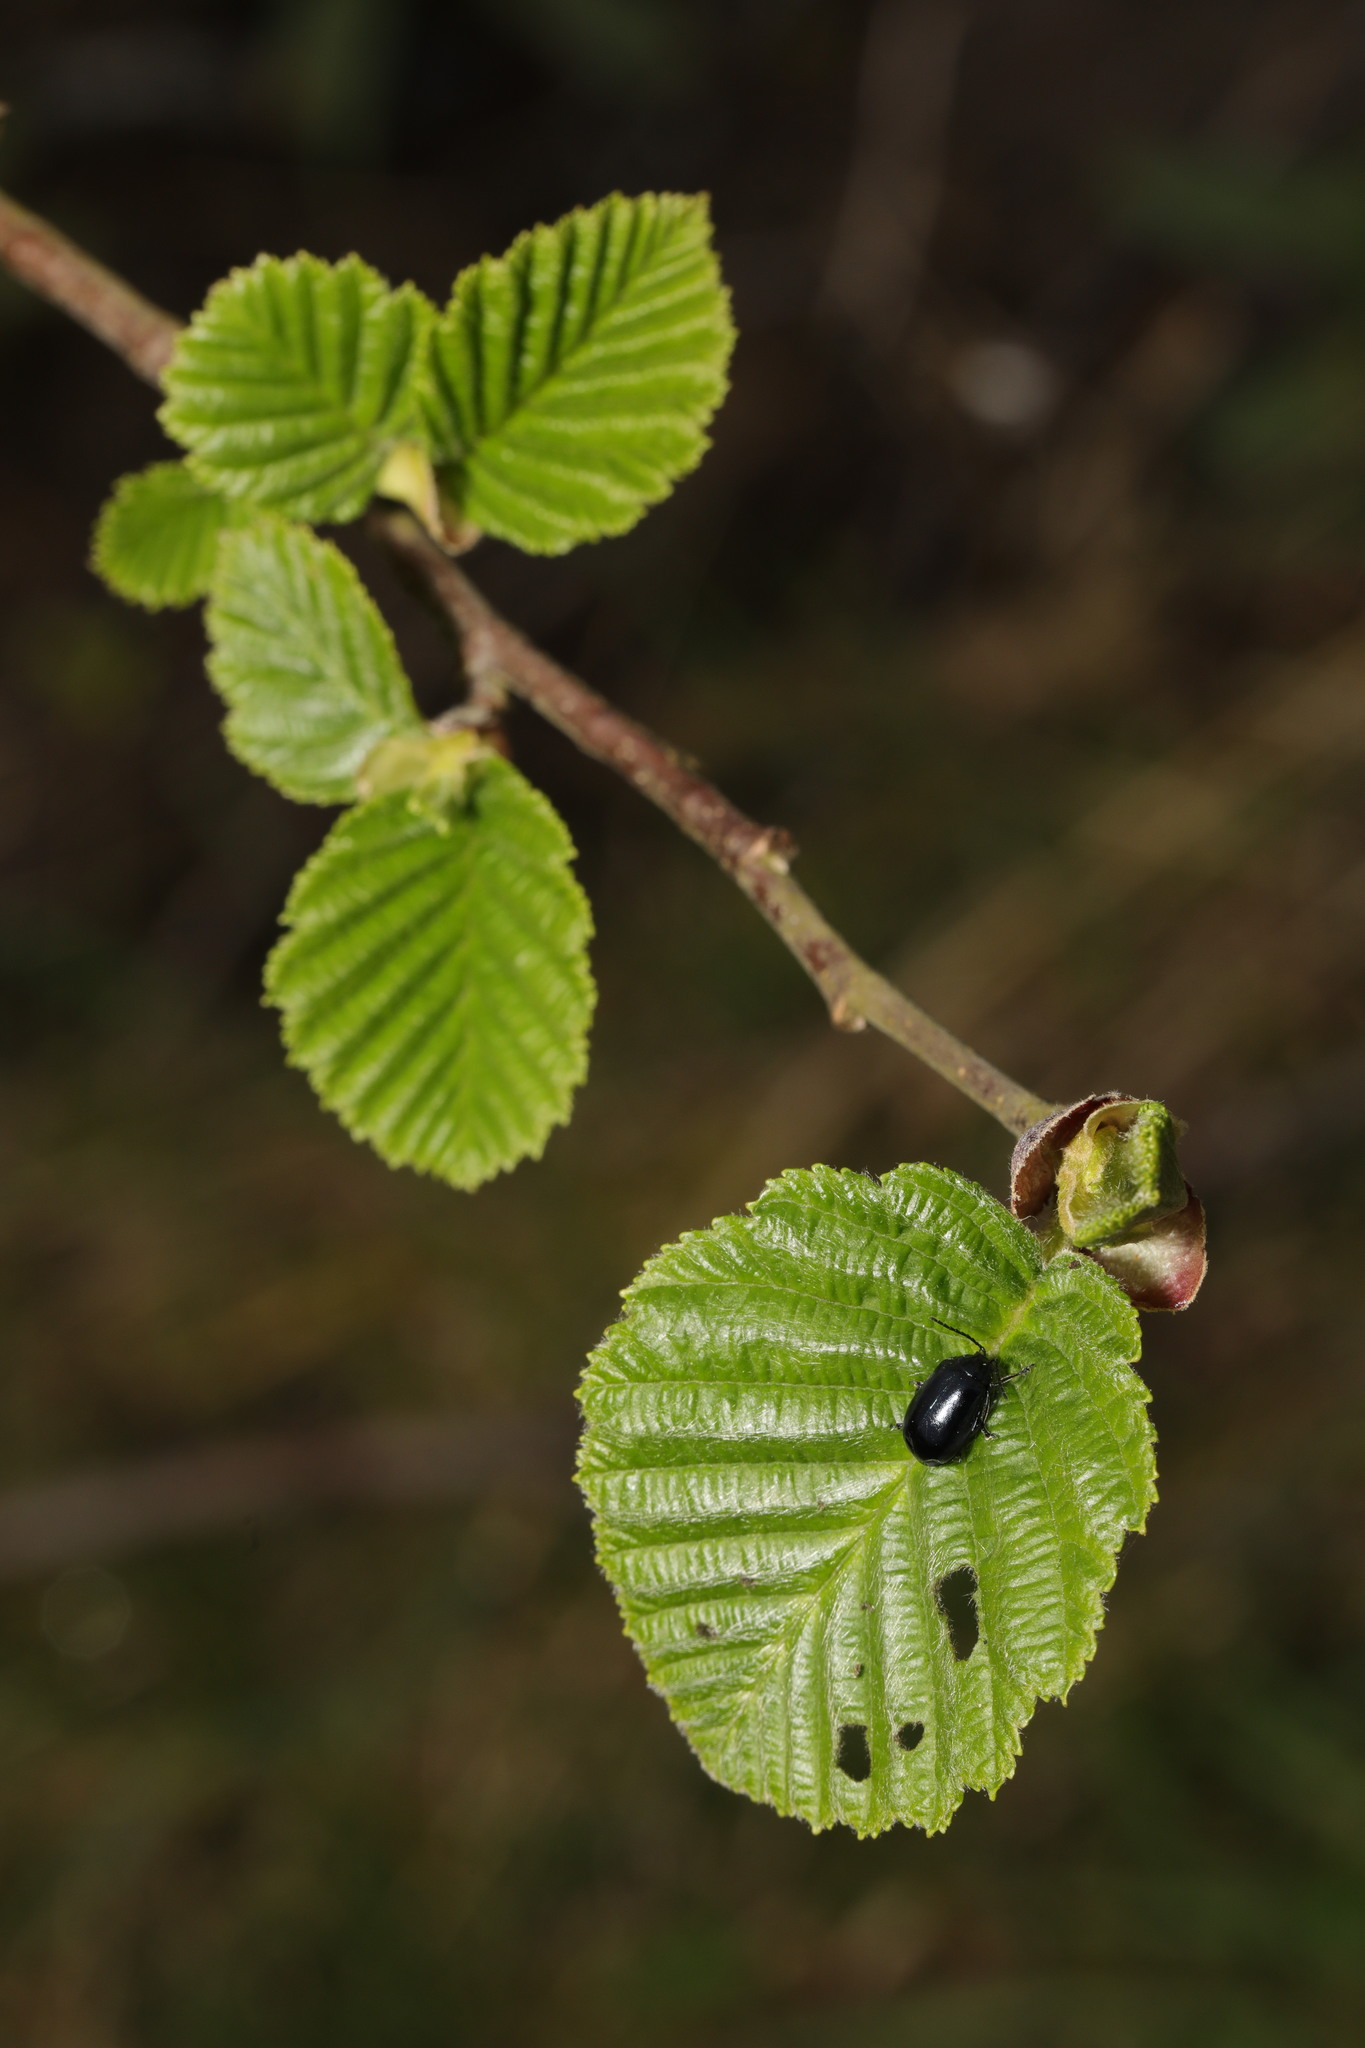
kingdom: Animalia
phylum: Arthropoda
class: Insecta
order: Coleoptera
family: Chrysomelidae
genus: Agelastica
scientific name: Agelastica alni
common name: Alder leaf beetle
